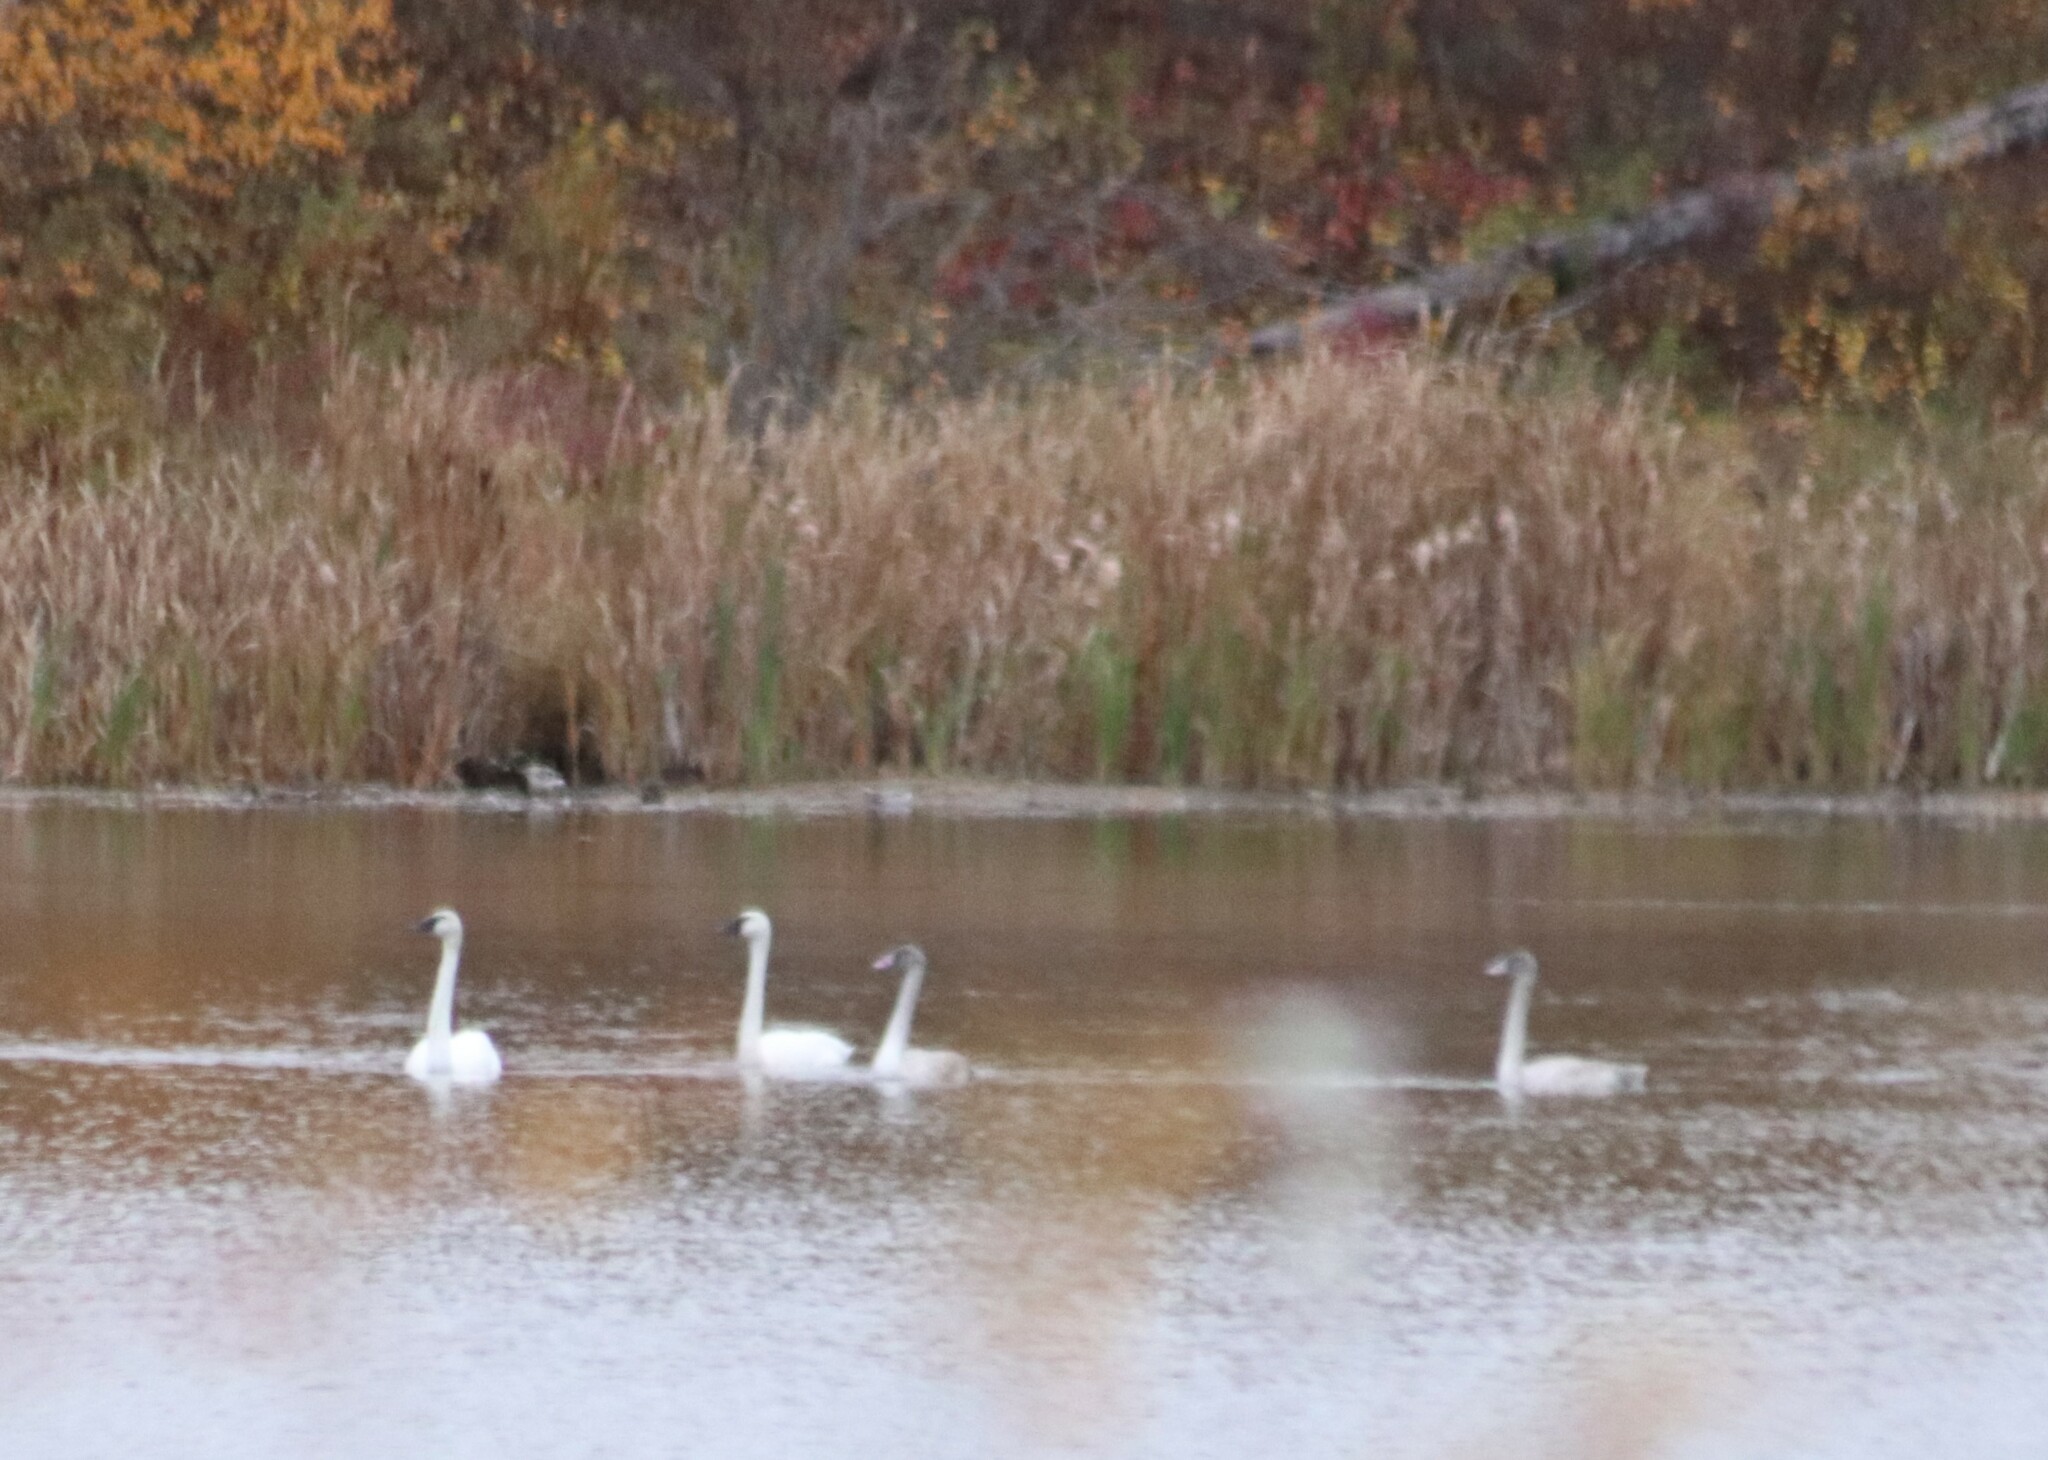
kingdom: Animalia
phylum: Chordata
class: Aves
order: Anseriformes
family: Anatidae
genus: Cygnus
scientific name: Cygnus buccinator
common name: Trumpeter swan
